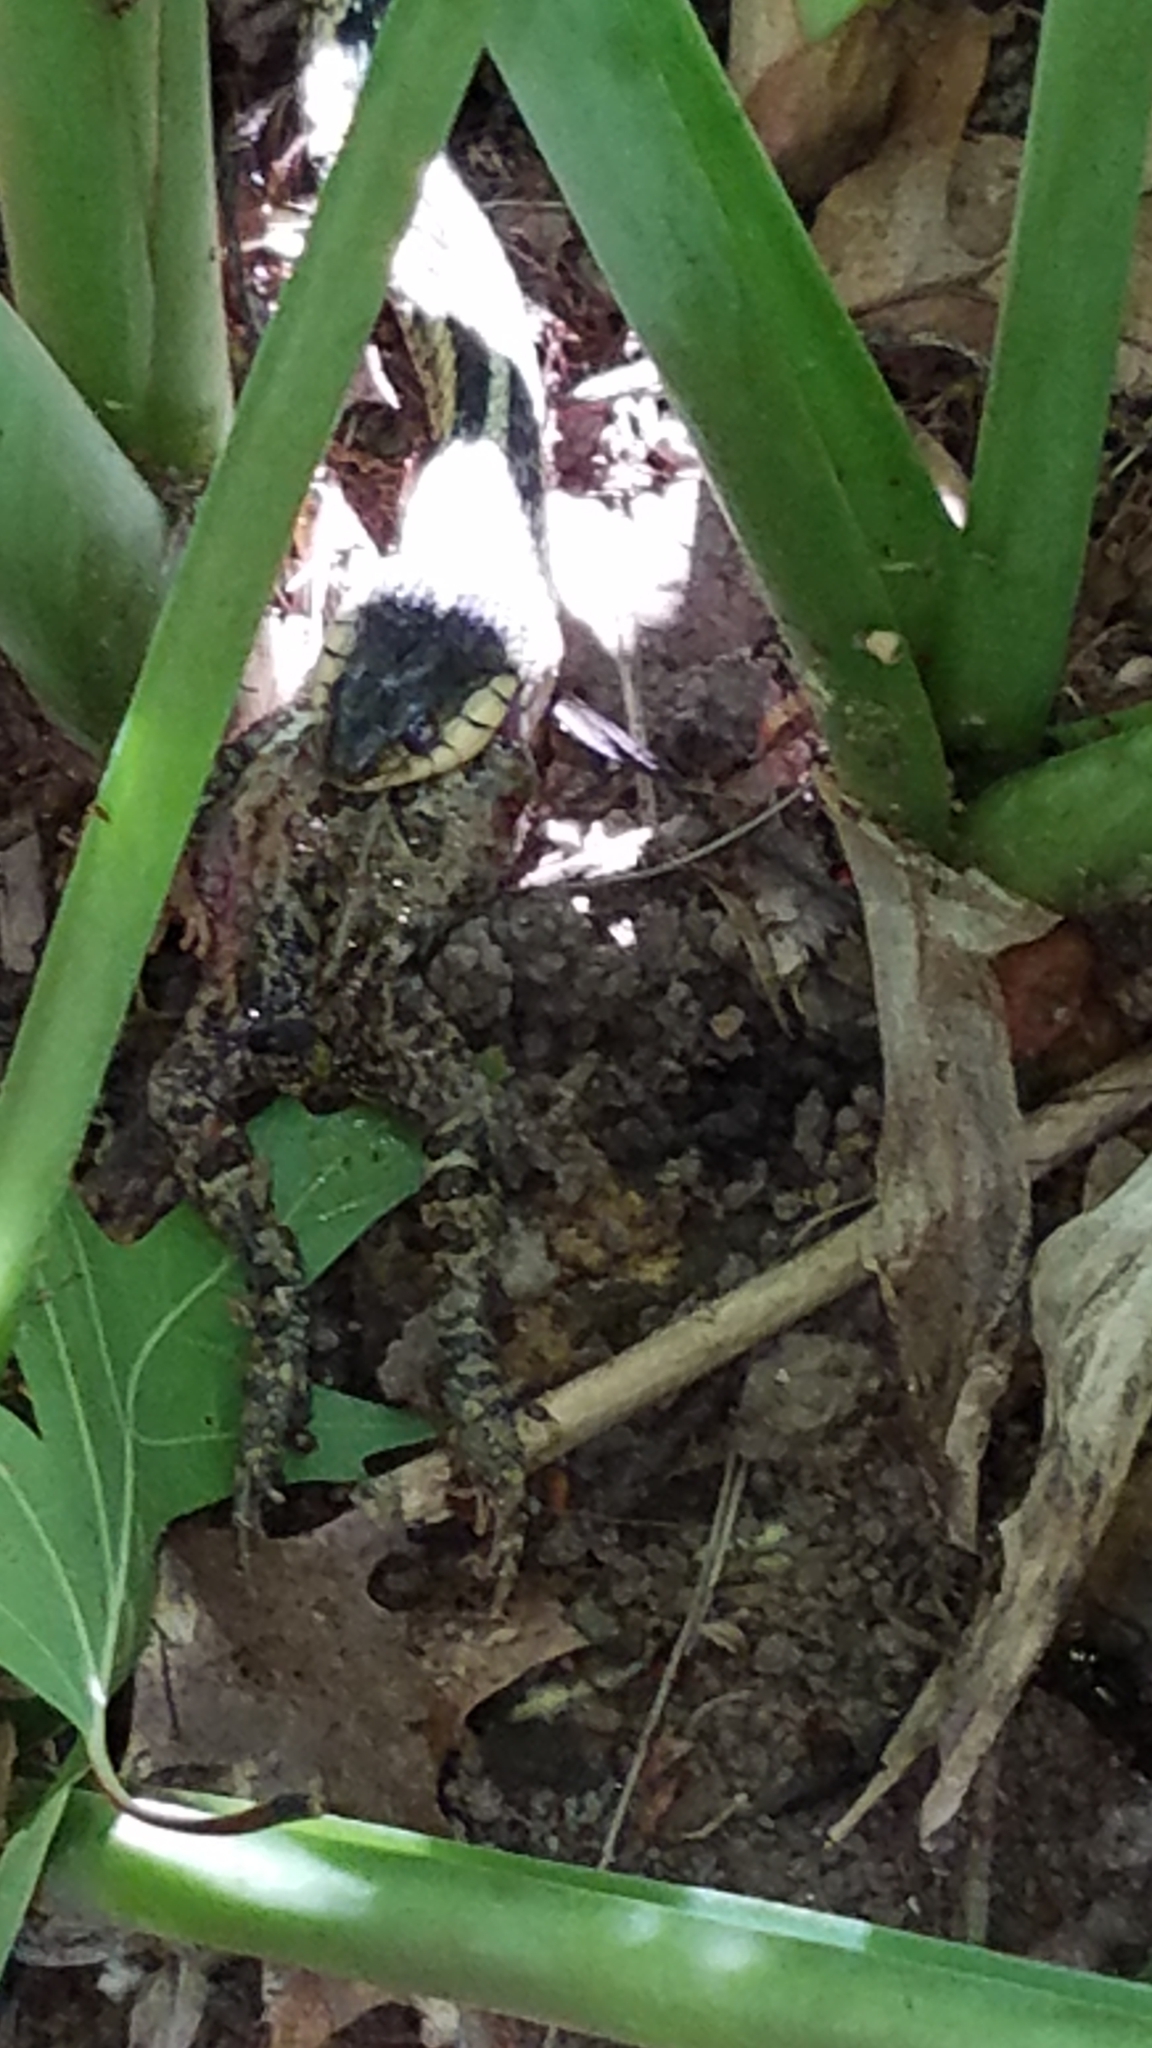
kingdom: Animalia
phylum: Chordata
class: Squamata
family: Colubridae
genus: Thamnophis
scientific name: Thamnophis sirtalis
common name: Common garter snake
